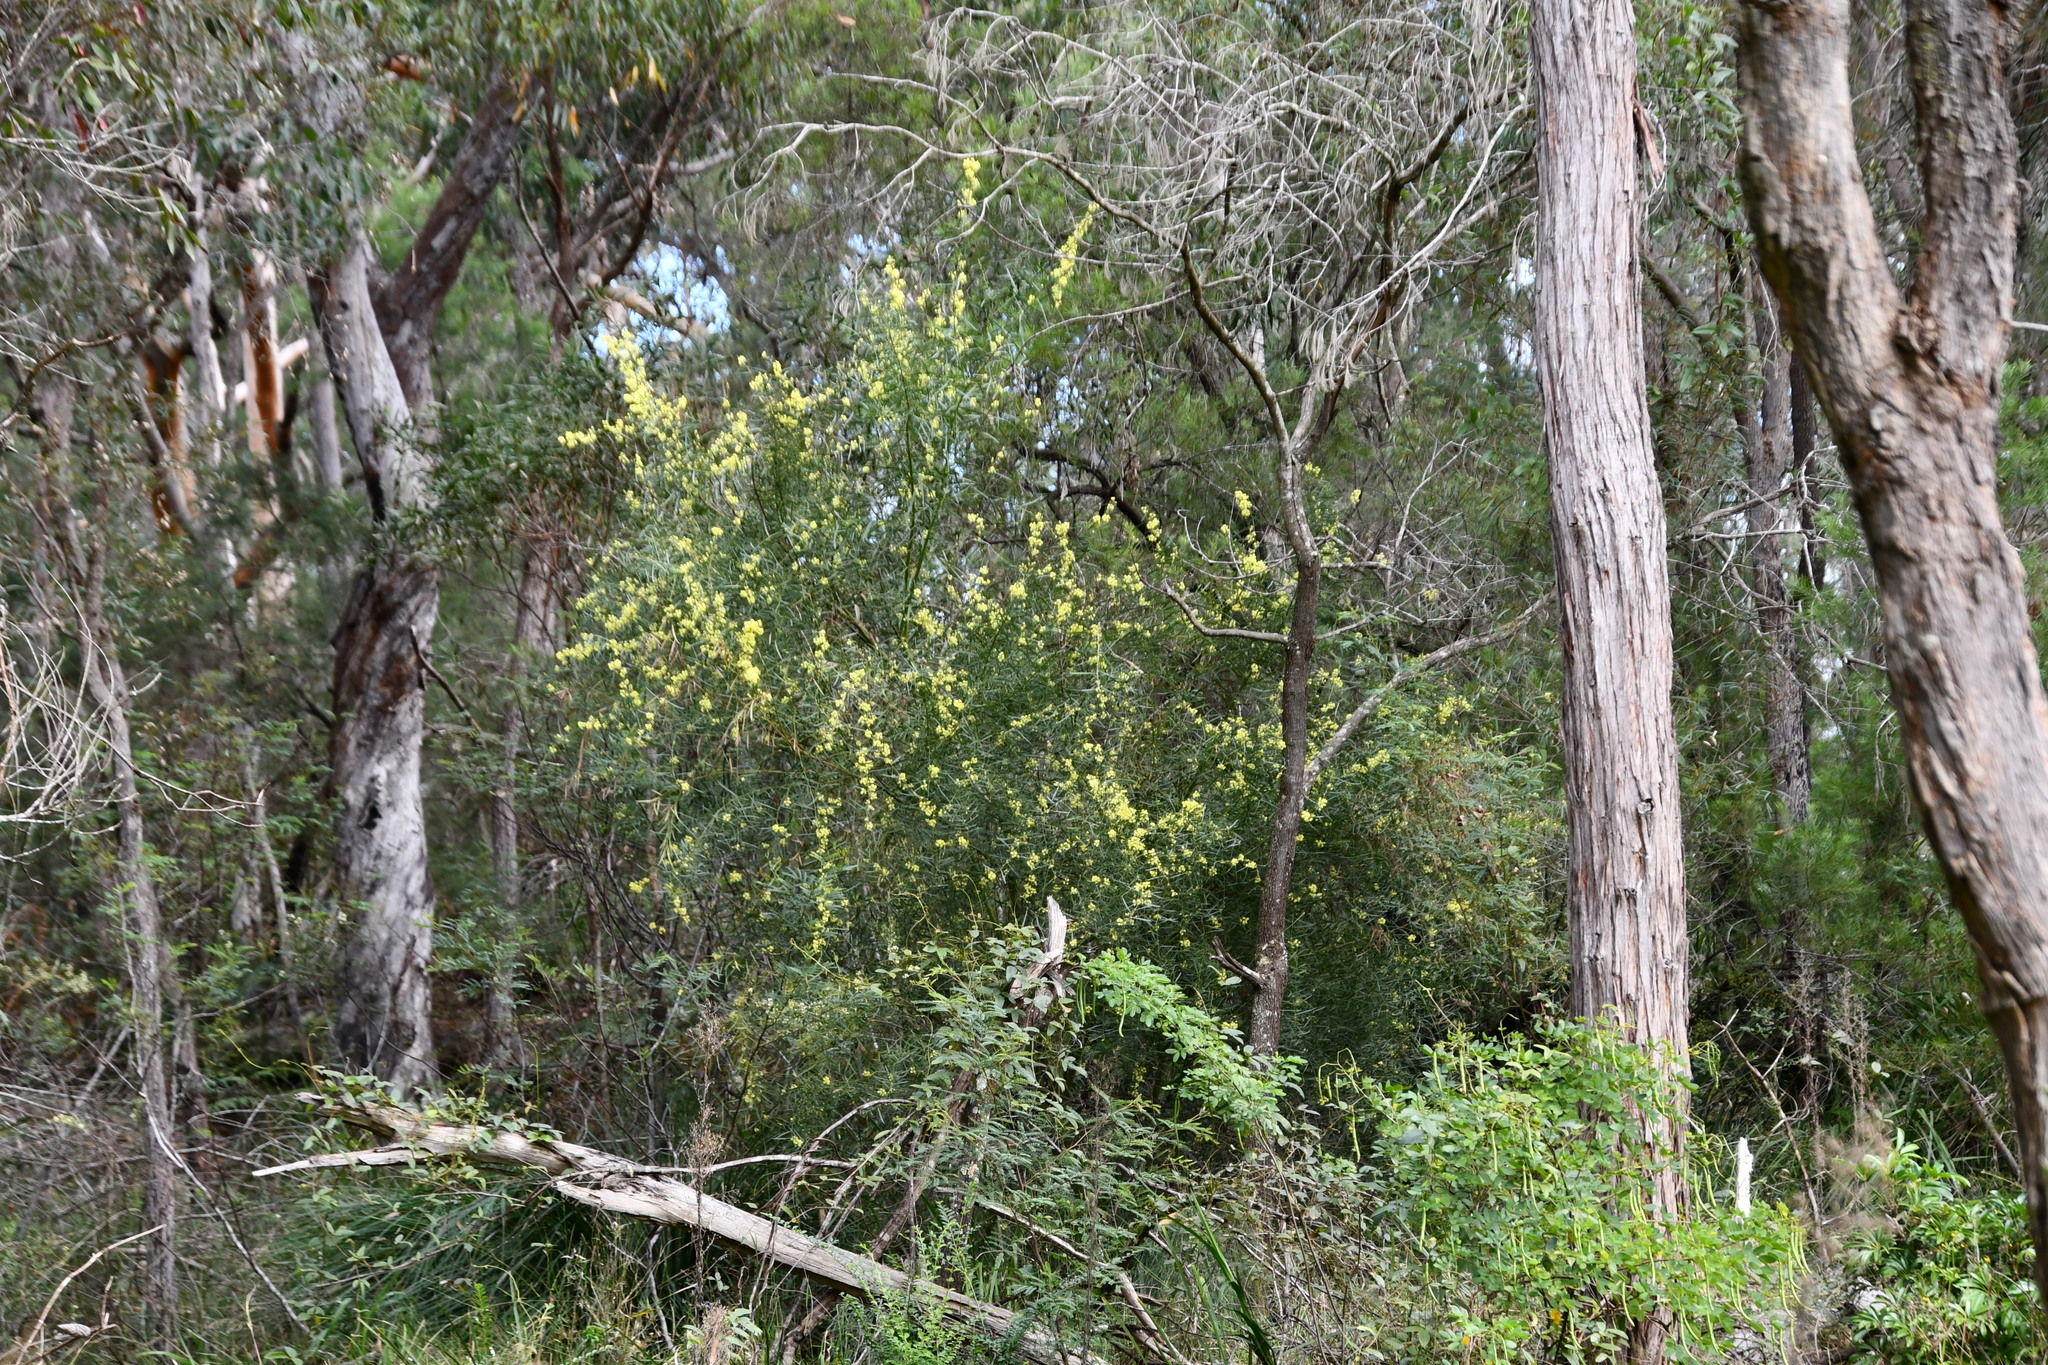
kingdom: Plantae
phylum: Tracheophyta
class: Magnoliopsida
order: Fabales
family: Fabaceae
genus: Acacia
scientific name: Acacia iteaphylla
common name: Flinders ranges wattle
